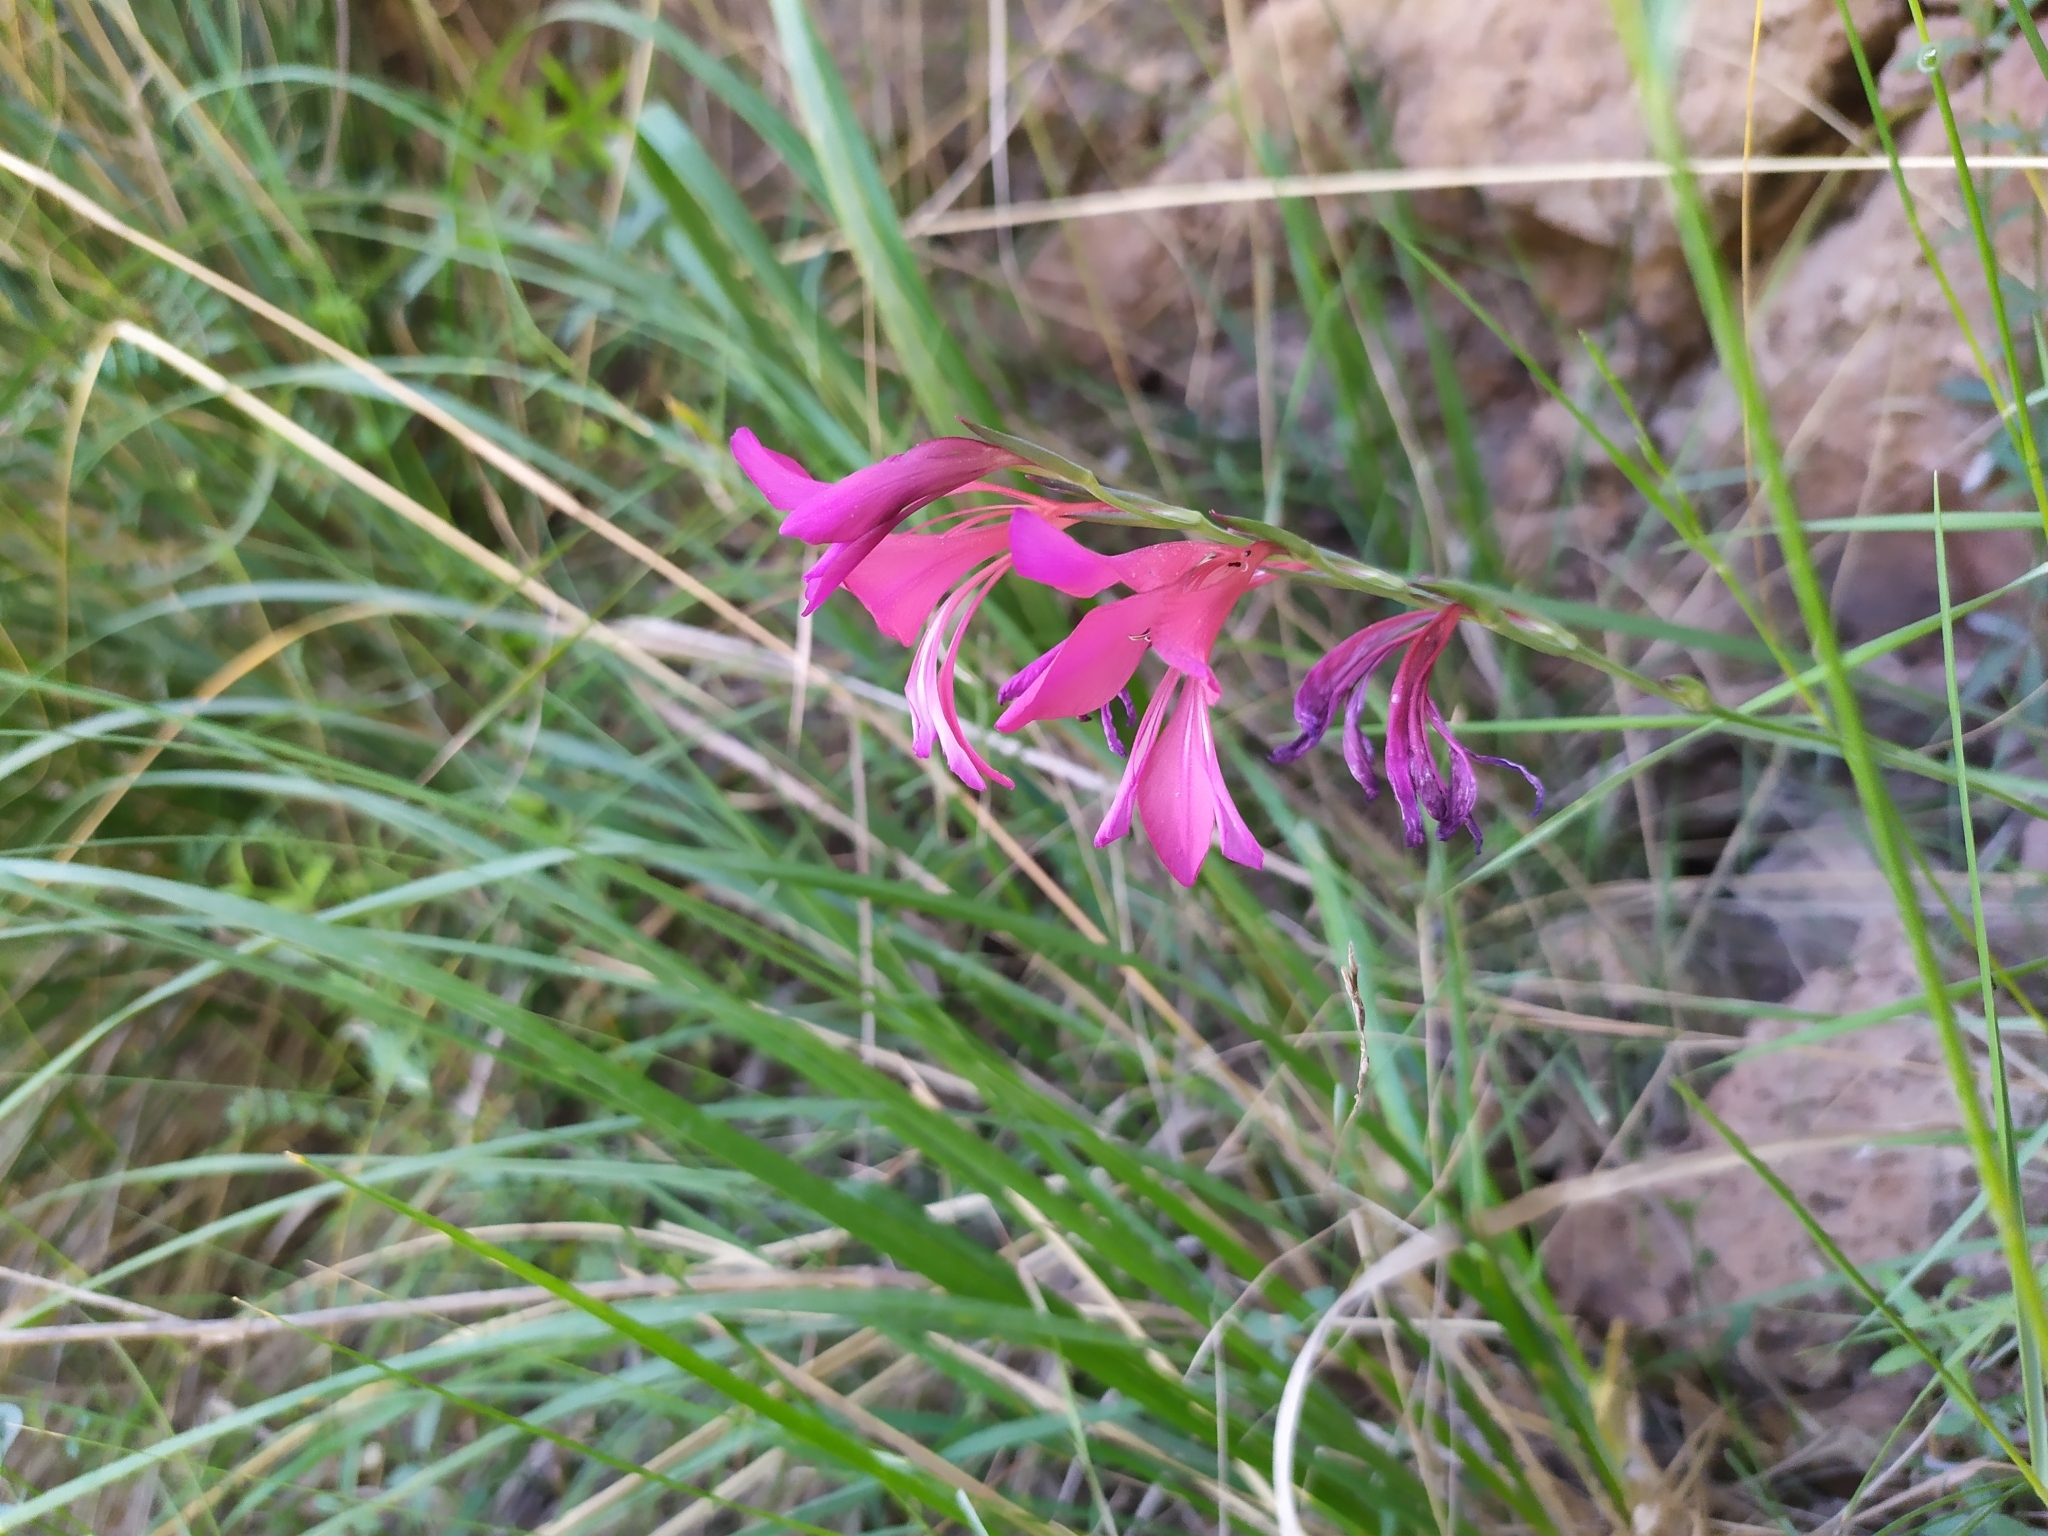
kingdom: Plantae
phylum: Tracheophyta
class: Liliopsida
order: Asparagales
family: Iridaceae
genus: Gladiolus
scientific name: Gladiolus italicus
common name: Field gladiolus
